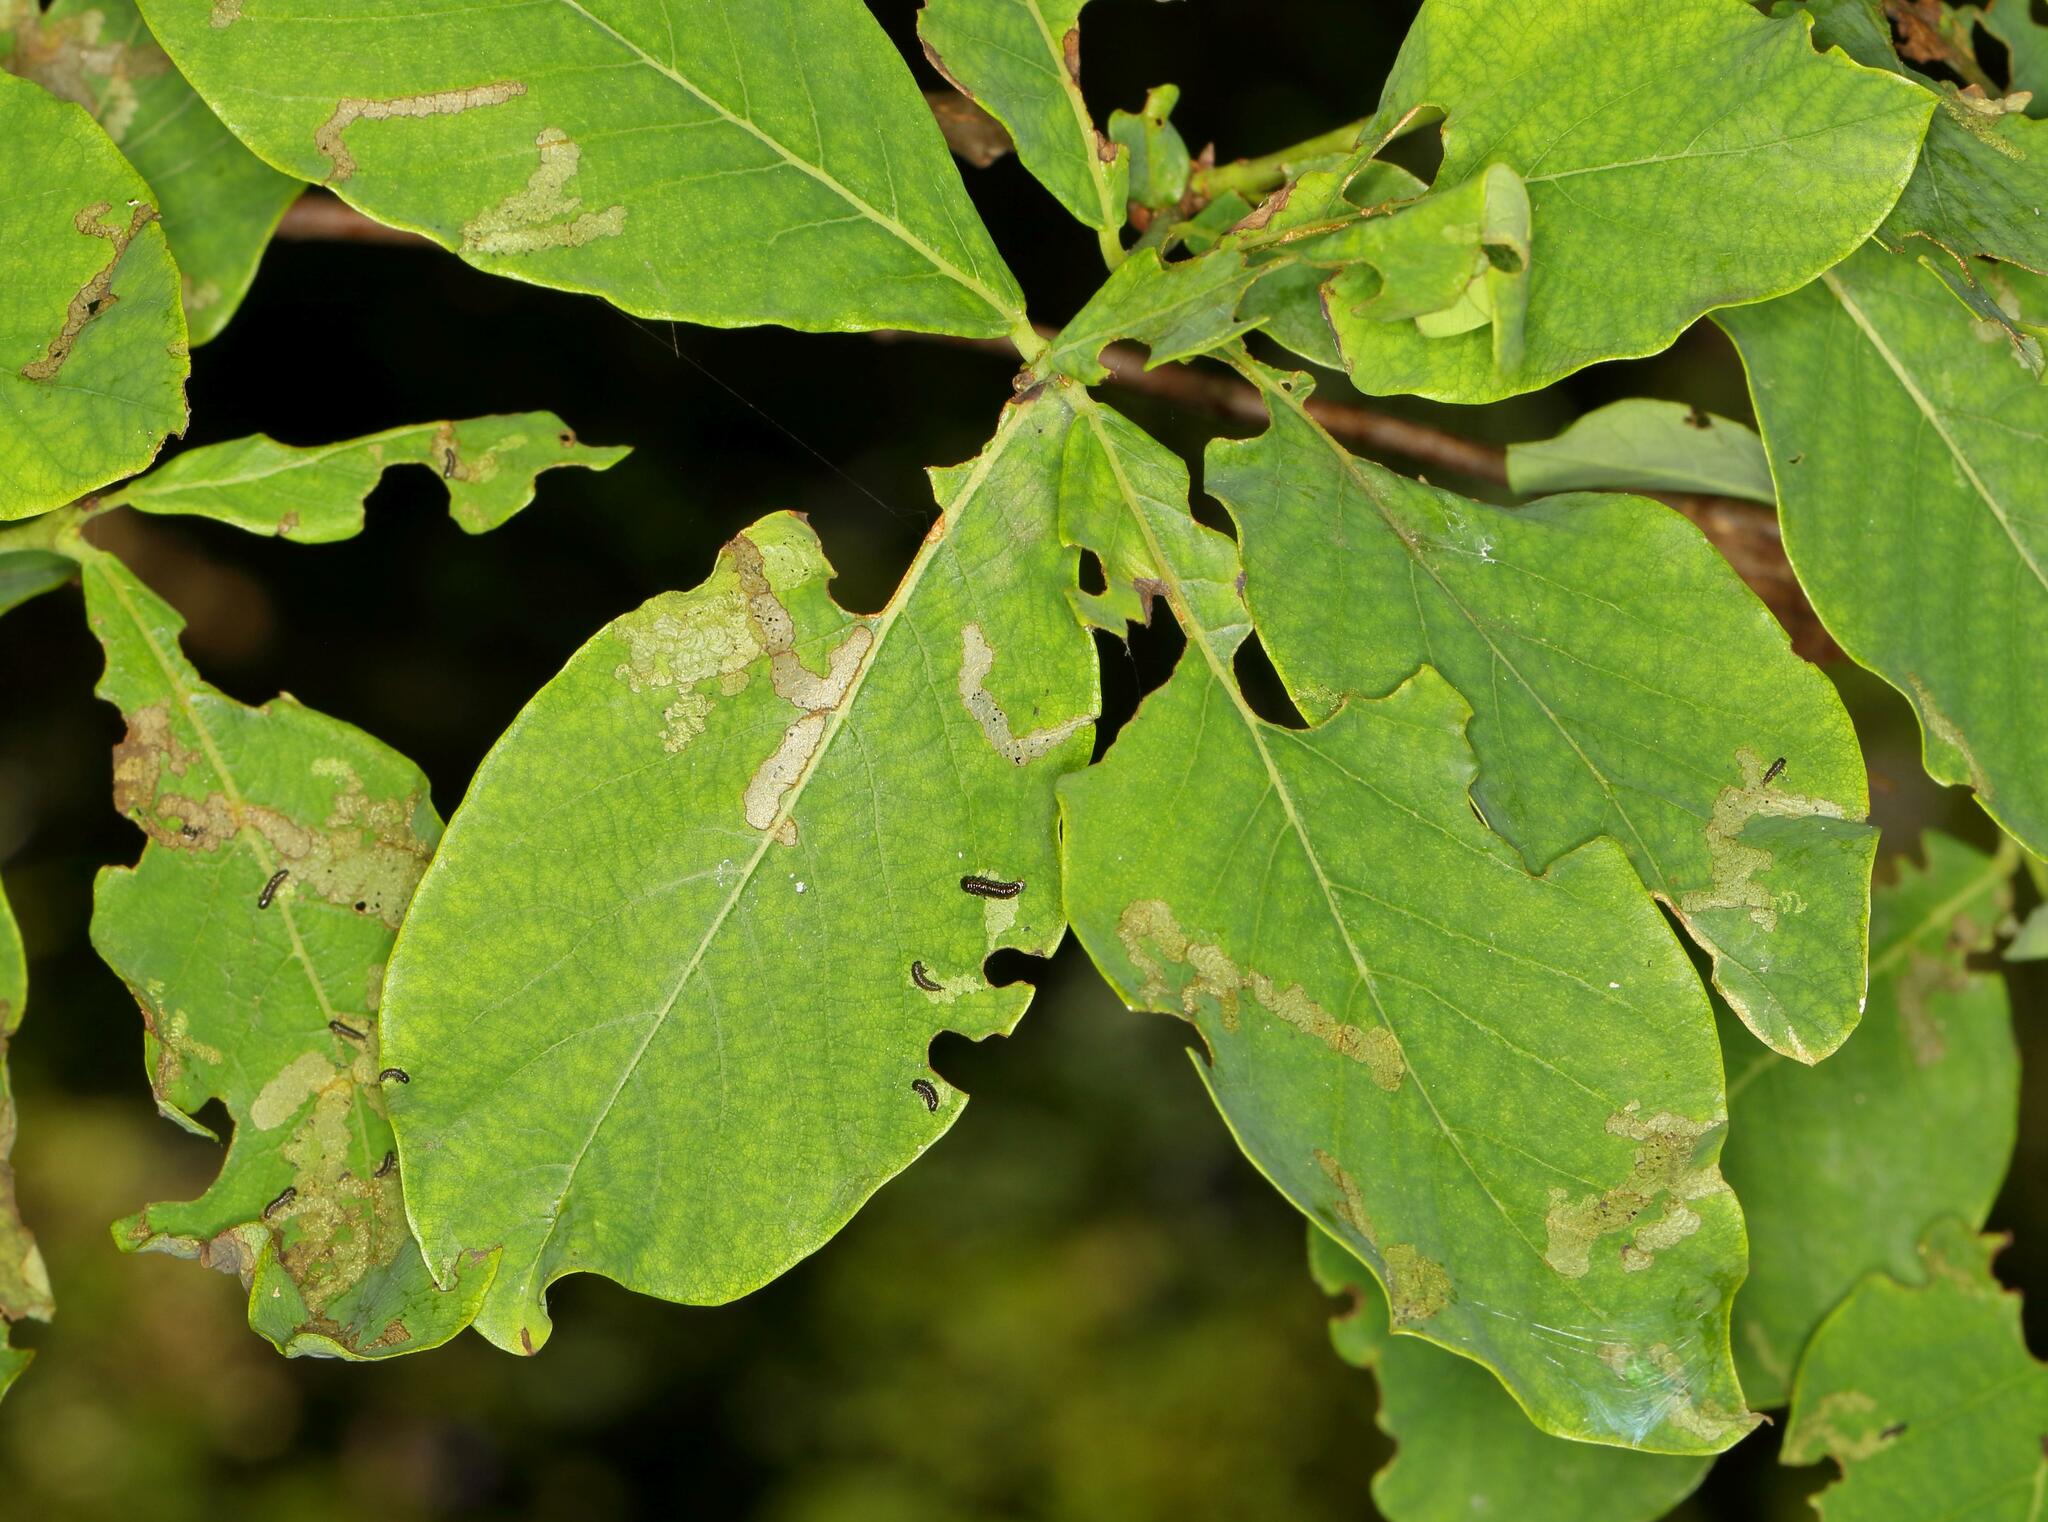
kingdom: Plantae
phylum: Tracheophyta
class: Magnoliopsida
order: Malvales
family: Thymelaeaceae
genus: Dais
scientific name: Dais cotinifolia
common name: Pompon tree
